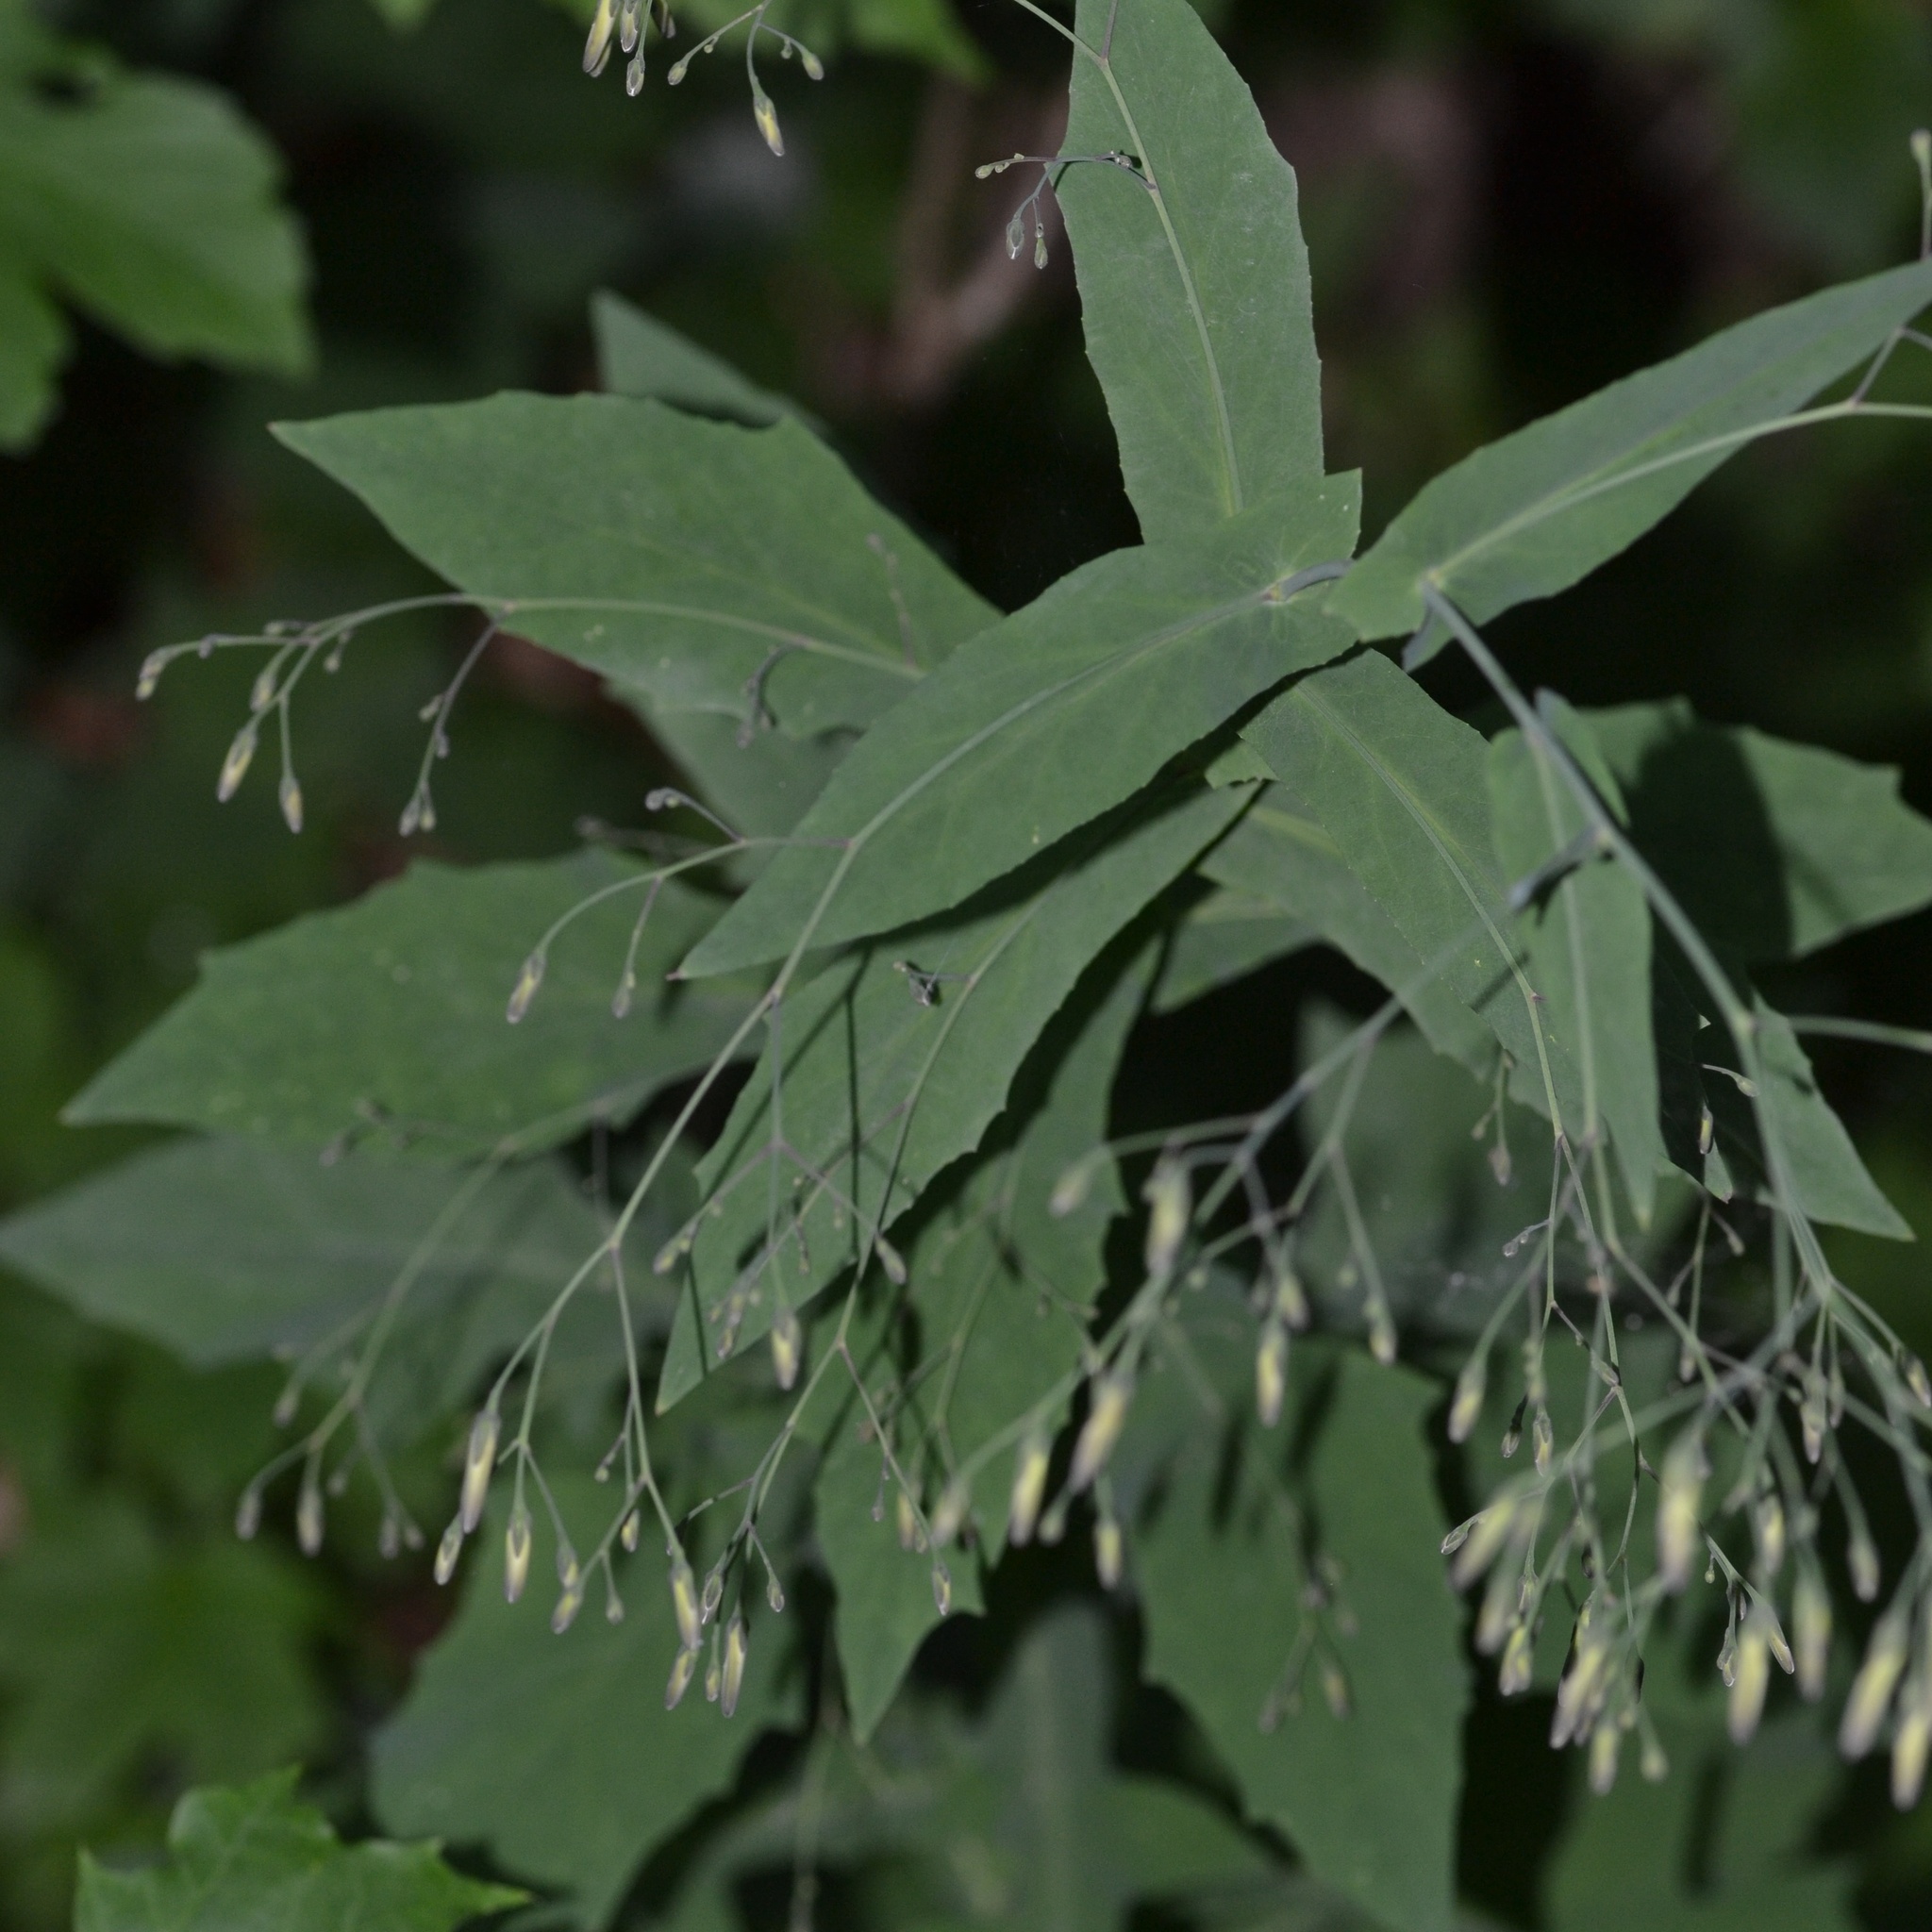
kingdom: Plantae
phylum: Tracheophyta
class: Magnoliopsida
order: Asterales
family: Asteraceae
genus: Prenanthes
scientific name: Prenanthes purpurea
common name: Purple lettuce
